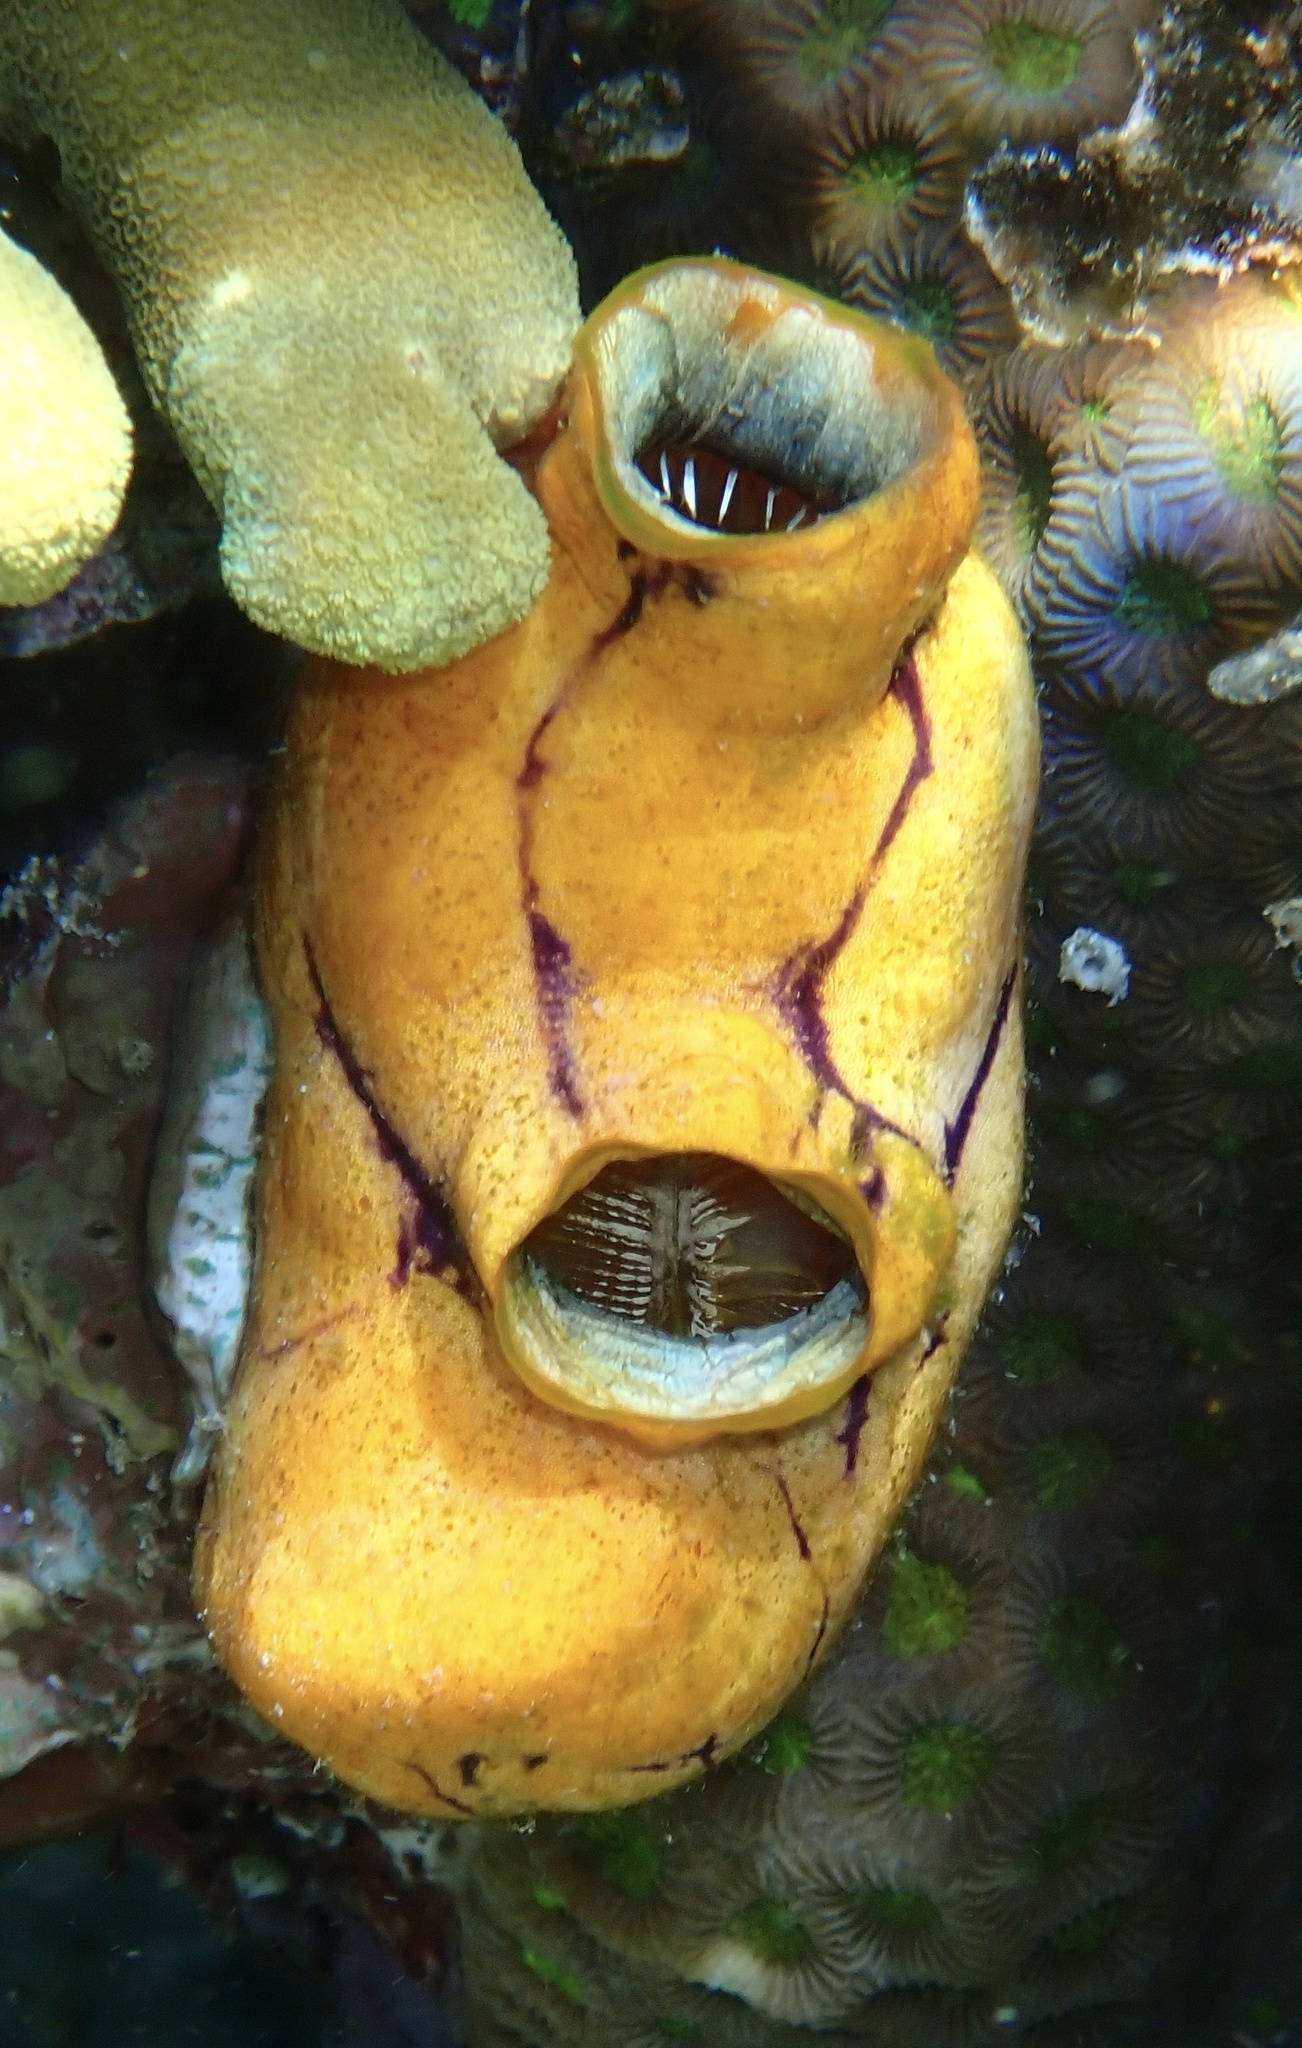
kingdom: Animalia
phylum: Chordata
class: Ascidiacea
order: Stolidobranchia
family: Styelidae
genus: Polycarpa
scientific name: Polycarpa aurata
